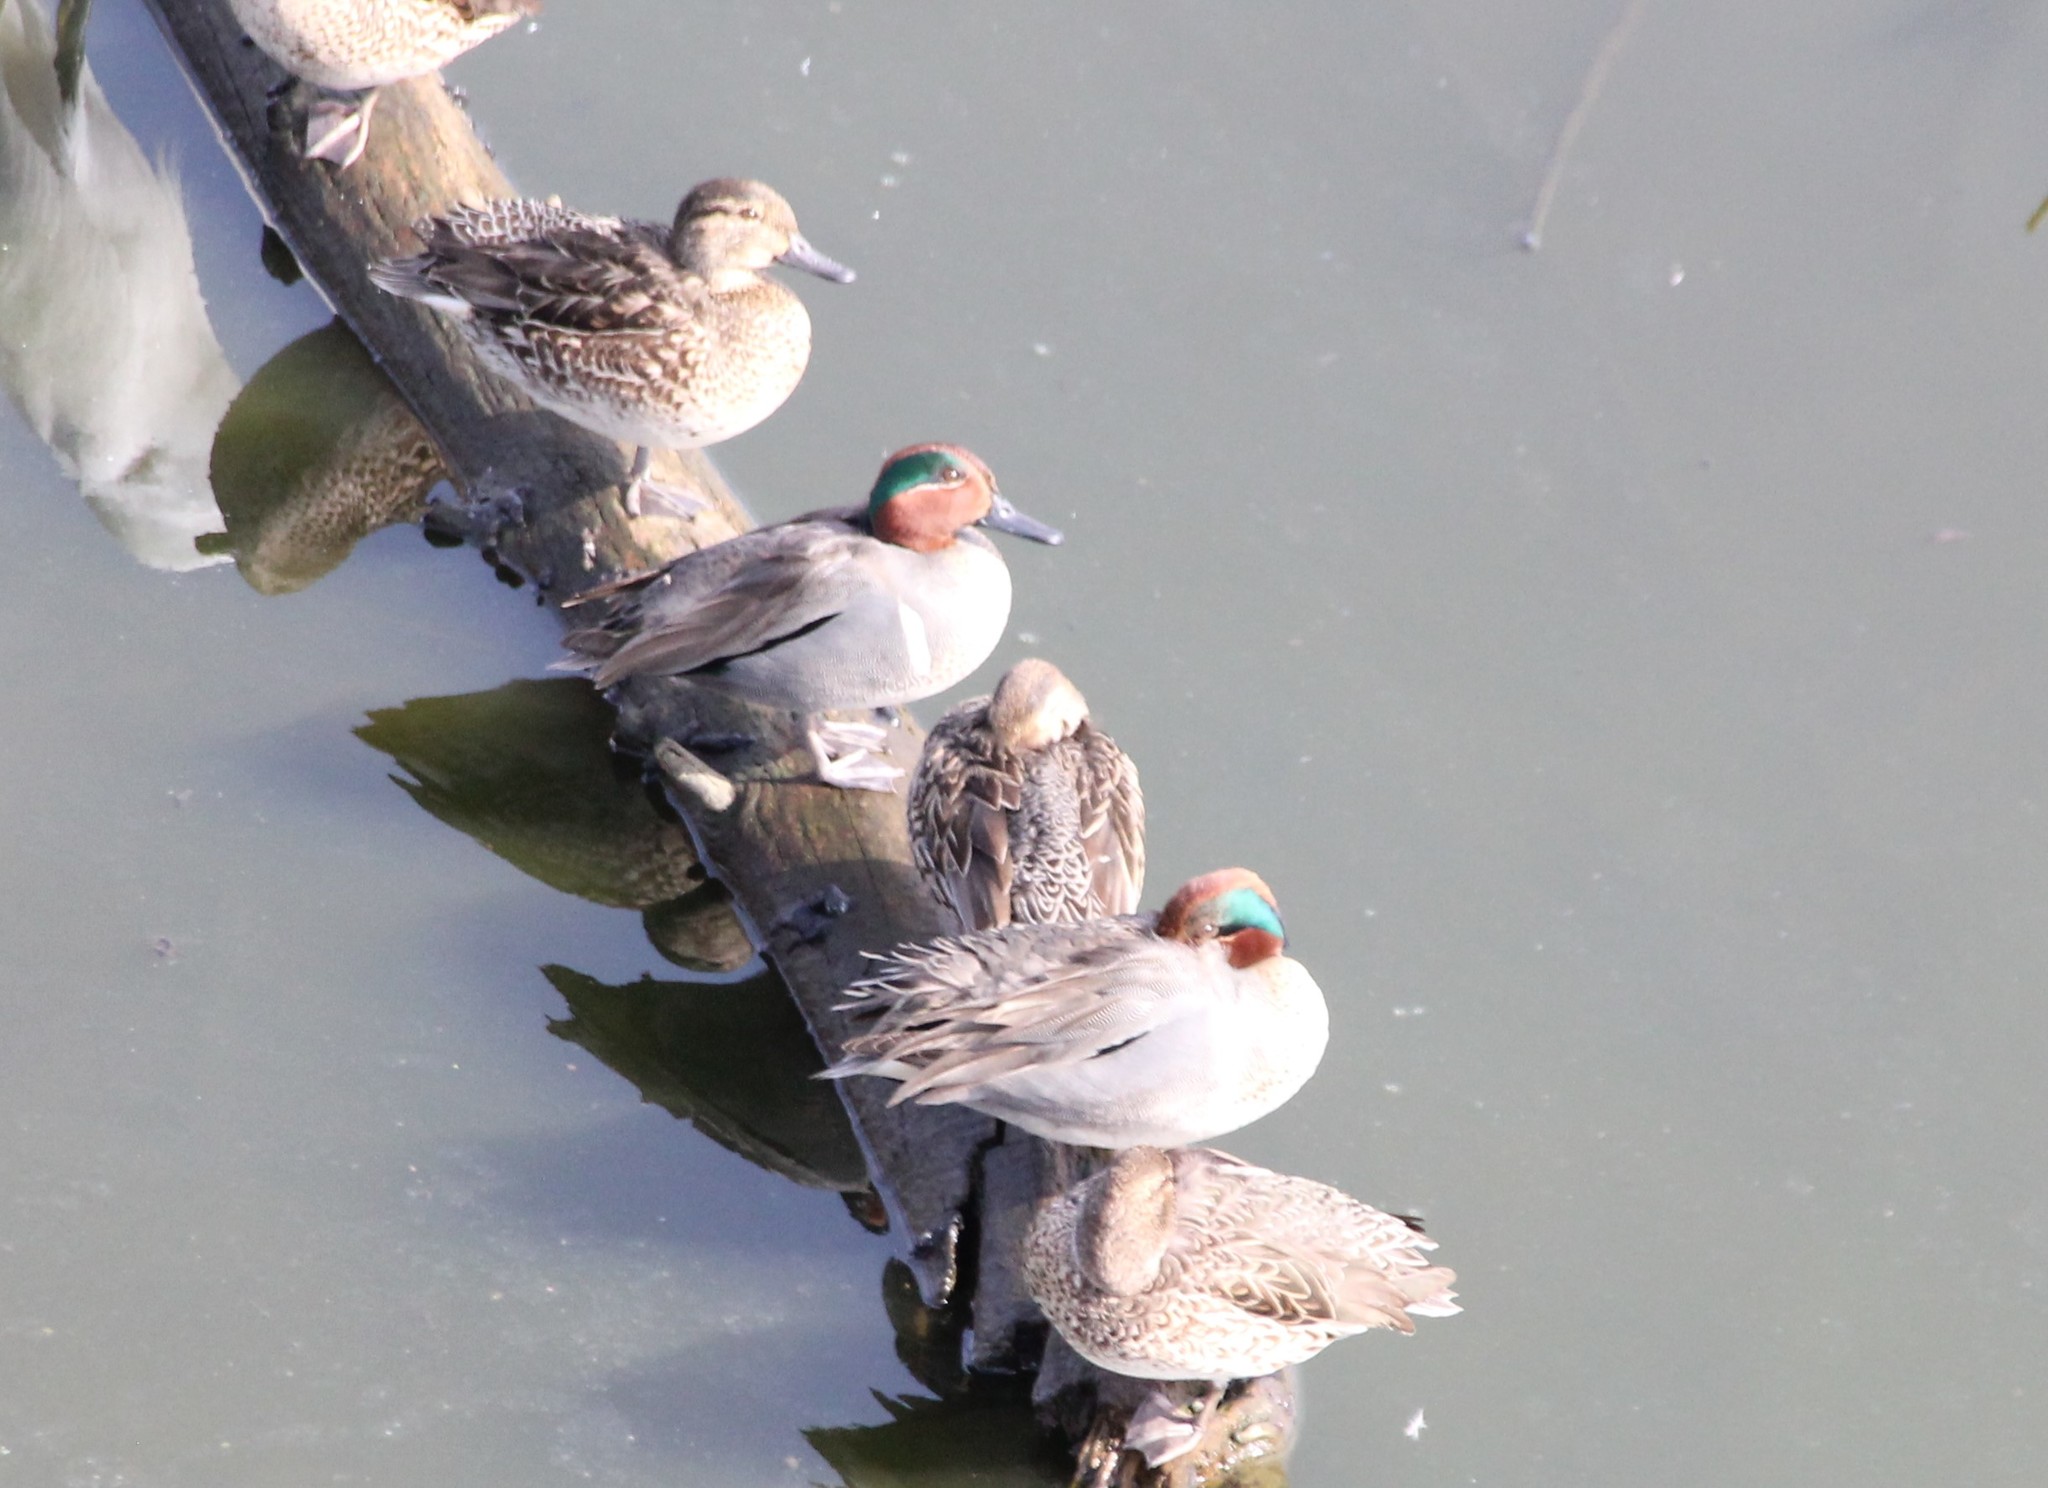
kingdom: Animalia
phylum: Chordata
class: Aves
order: Anseriformes
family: Anatidae
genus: Anas
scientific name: Anas crecca
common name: Eurasian teal
